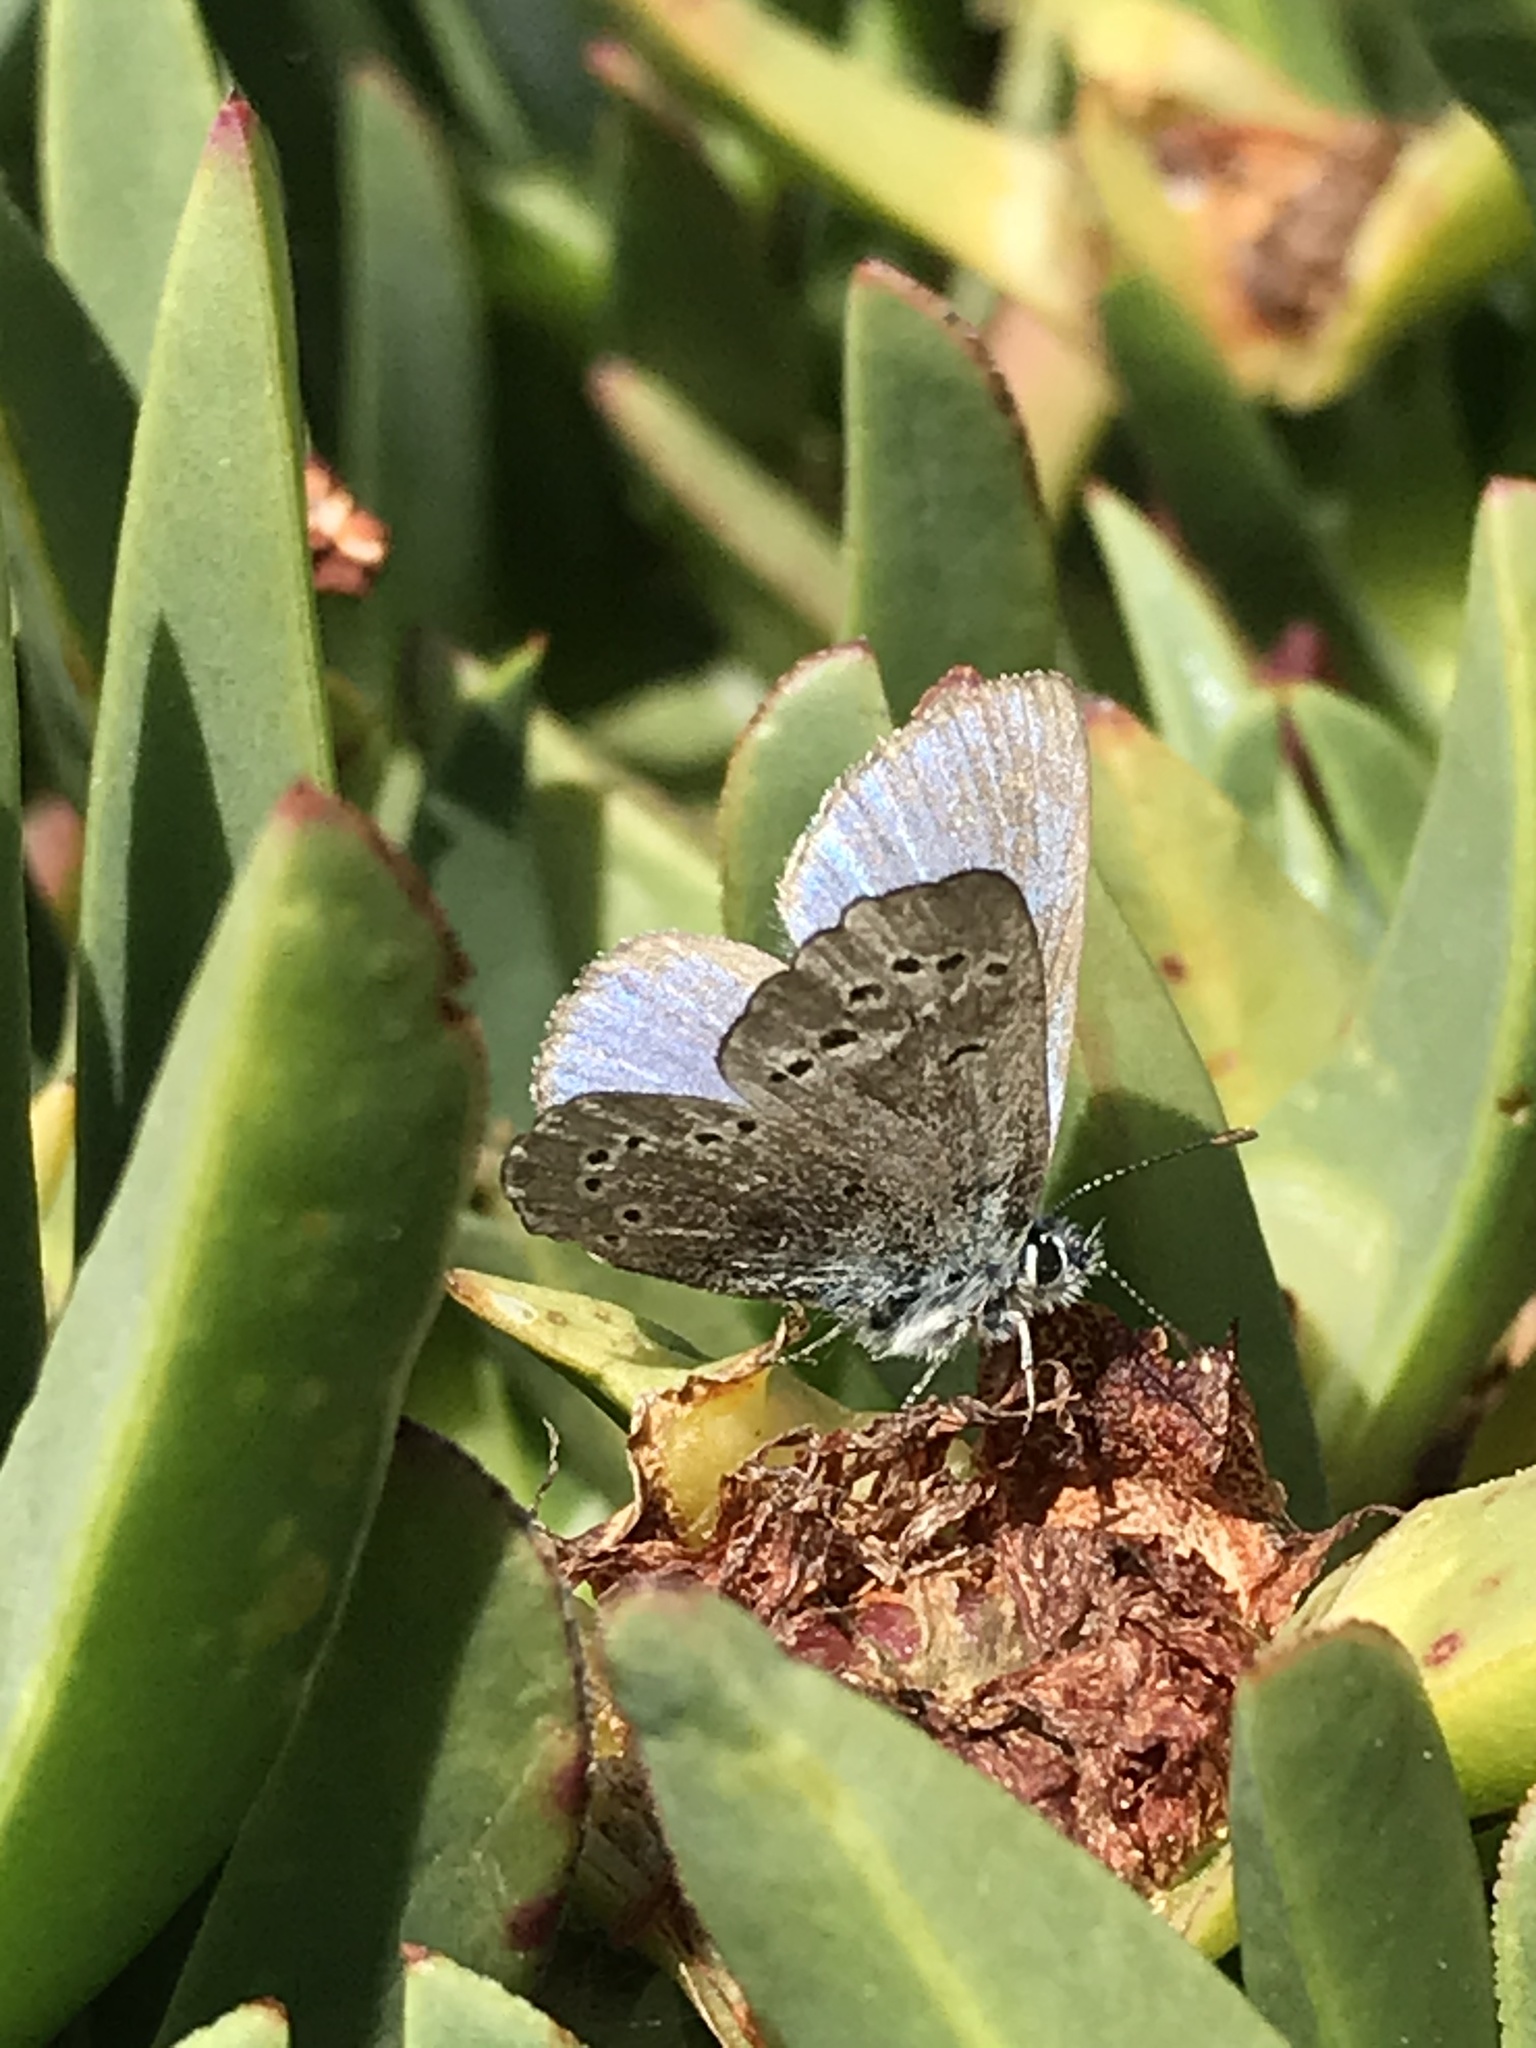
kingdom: Animalia
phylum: Arthropoda
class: Insecta
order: Lepidoptera
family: Lycaenidae
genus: Glaucopsyche
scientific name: Glaucopsyche lygdamus
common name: Silvery blue
